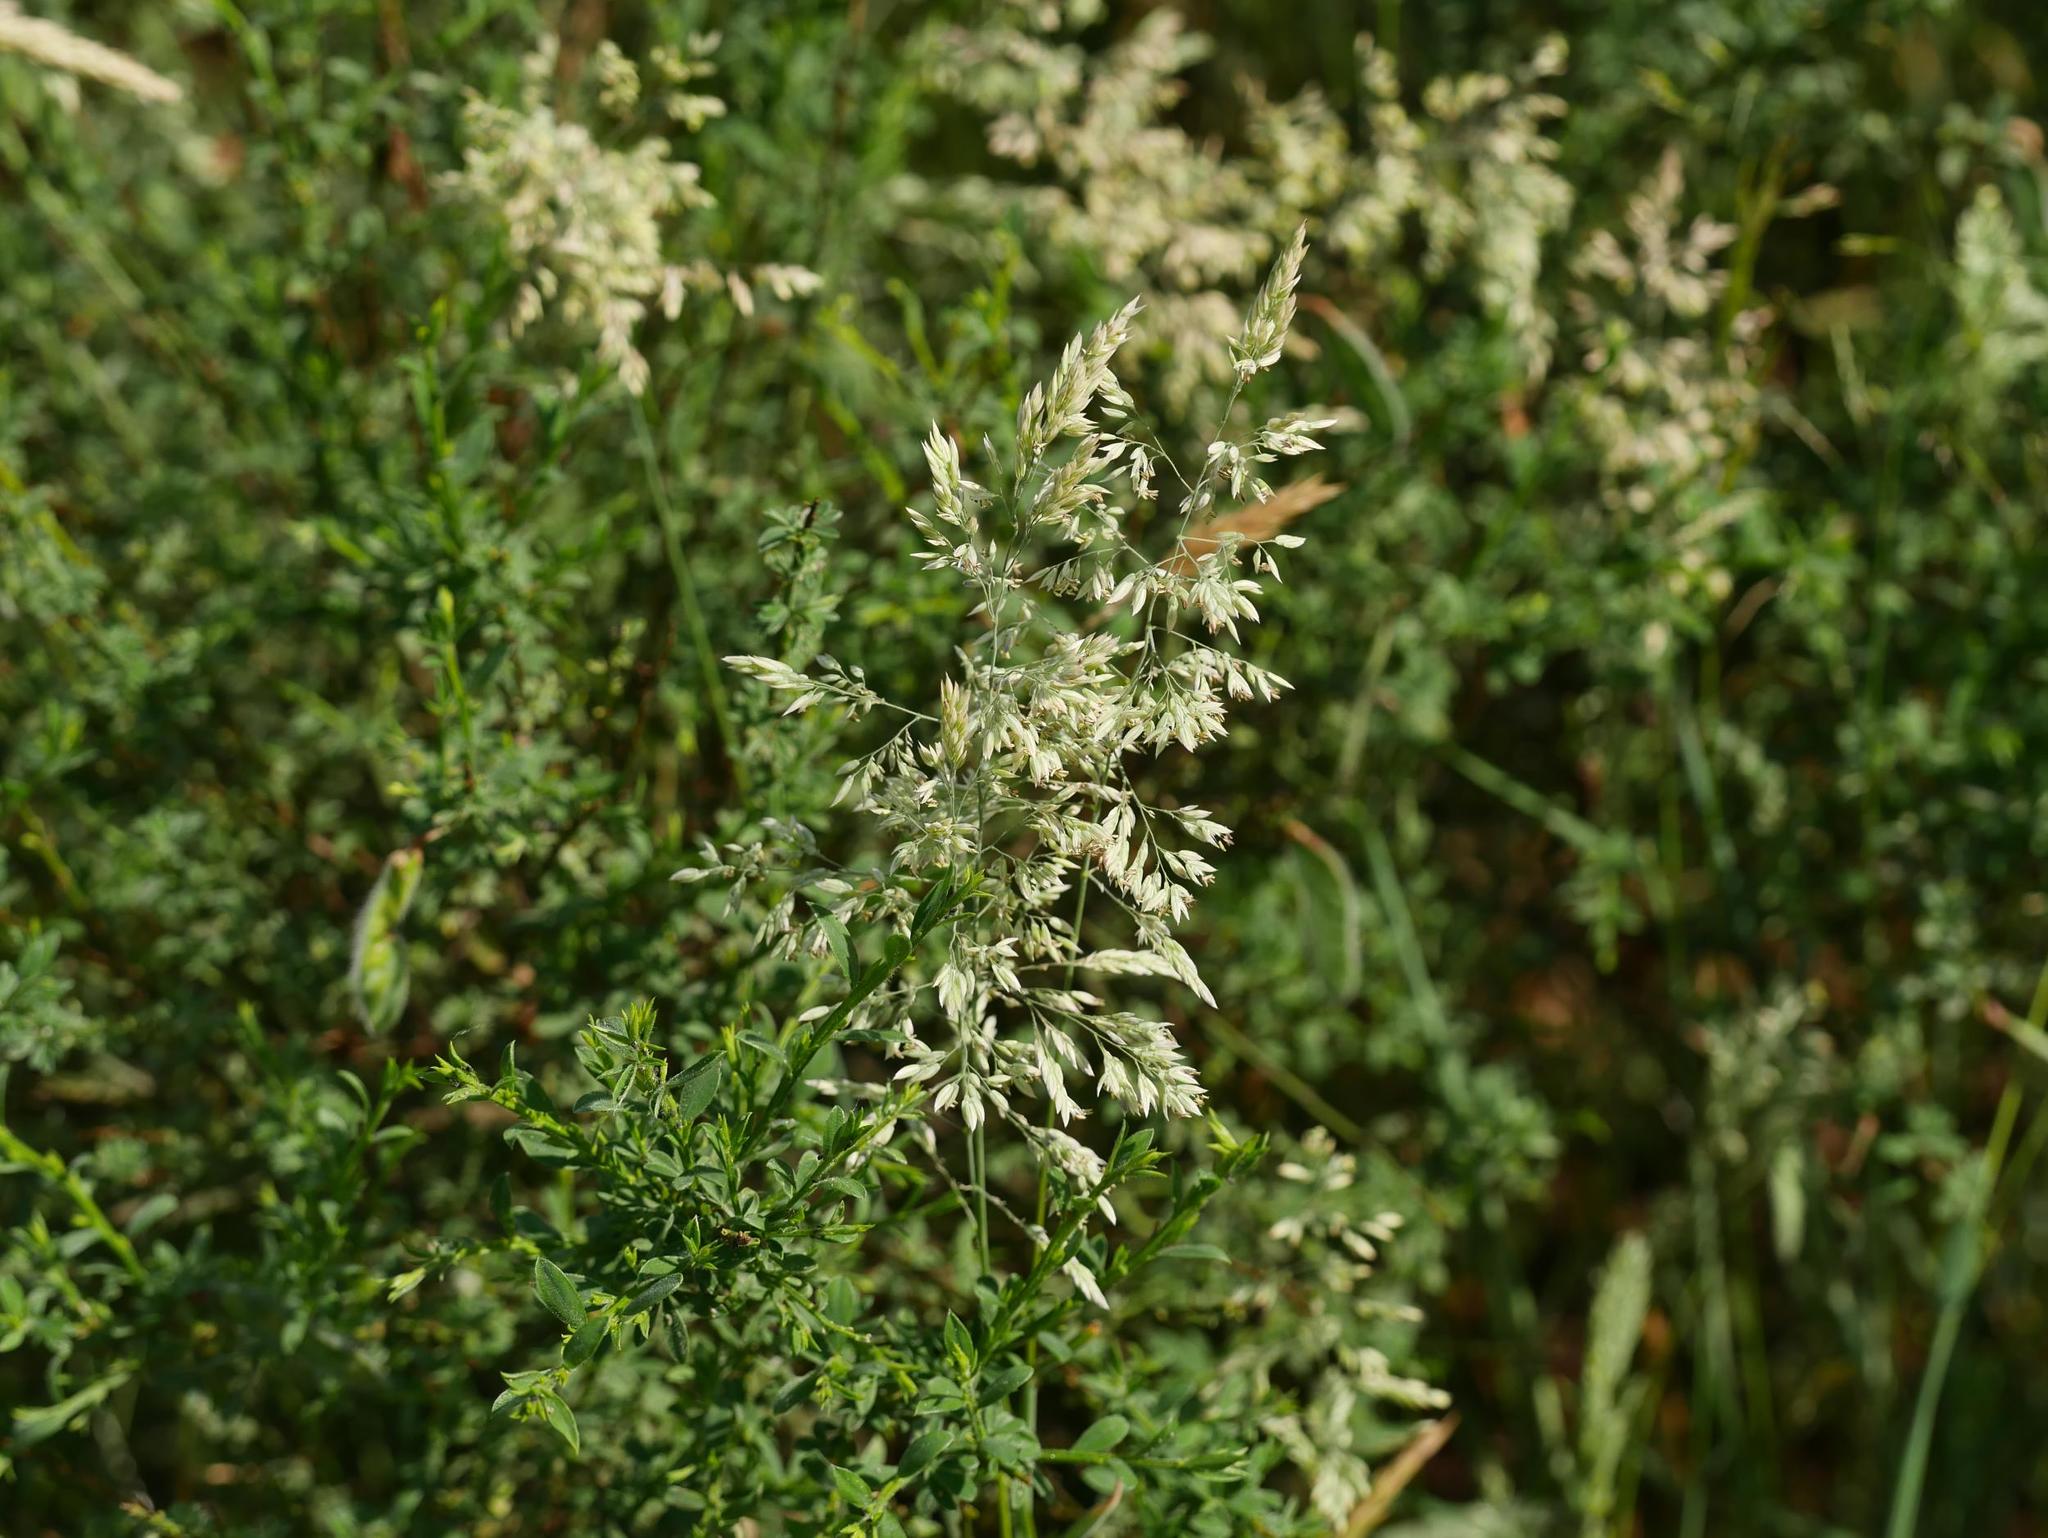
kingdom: Plantae
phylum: Tracheophyta
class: Liliopsida
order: Poales
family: Poaceae
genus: Holcus
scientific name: Holcus lanatus
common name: Yorkshire-fog
